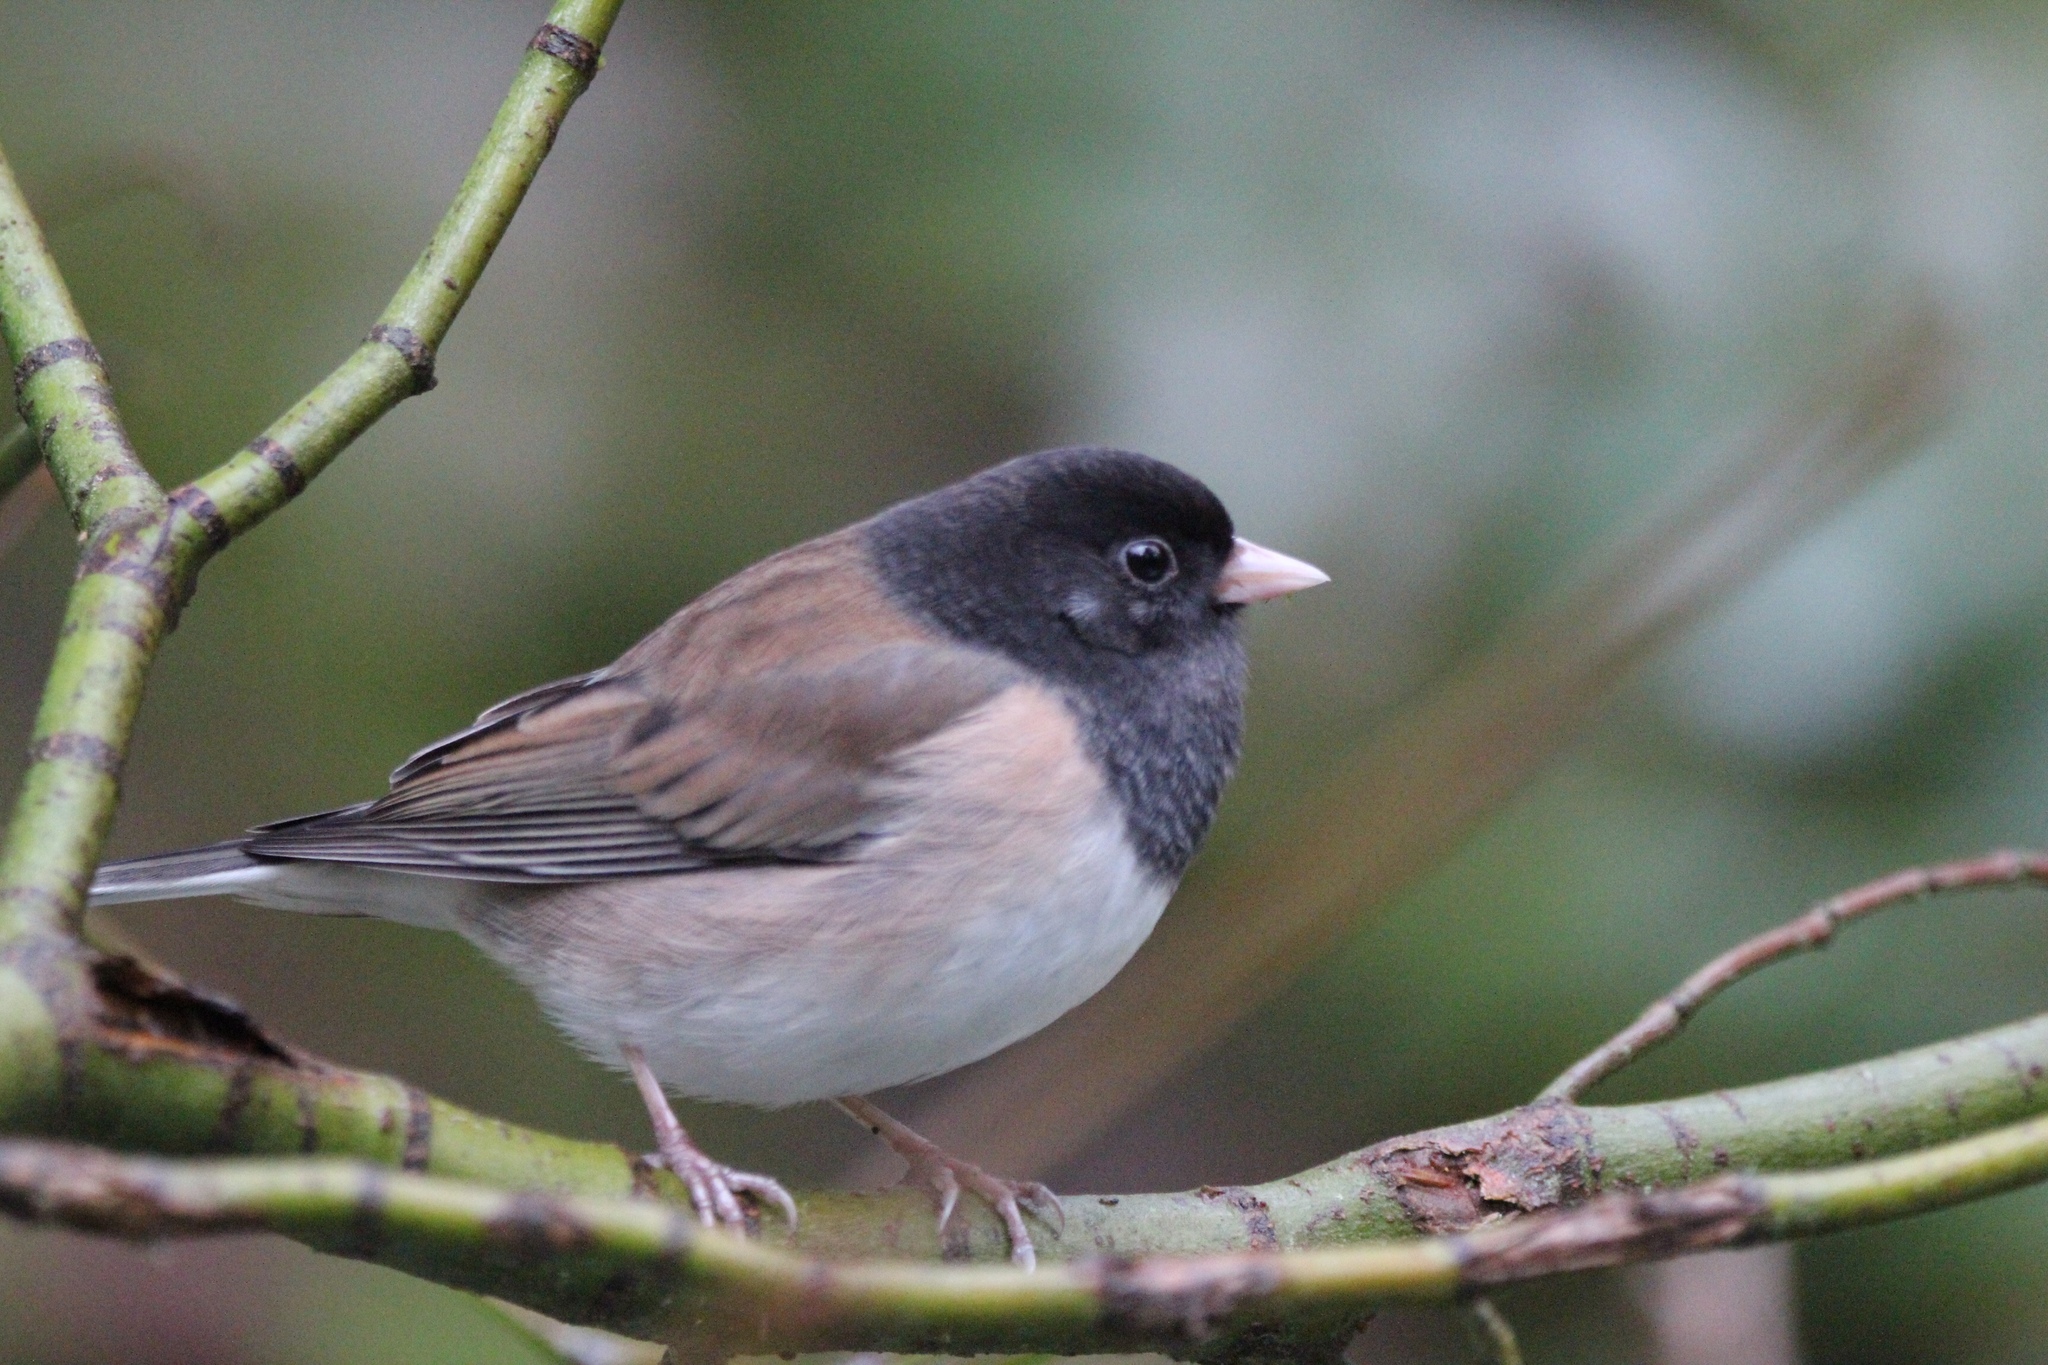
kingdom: Animalia
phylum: Chordata
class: Aves
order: Passeriformes
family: Passerellidae
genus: Junco
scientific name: Junco hyemalis
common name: Dark-eyed junco
